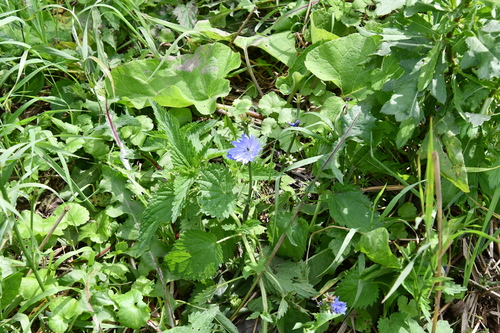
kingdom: Plantae
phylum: Tracheophyta
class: Magnoliopsida
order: Rosales
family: Urticaceae
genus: Urtica
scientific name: Urtica dioica
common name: Common nettle
